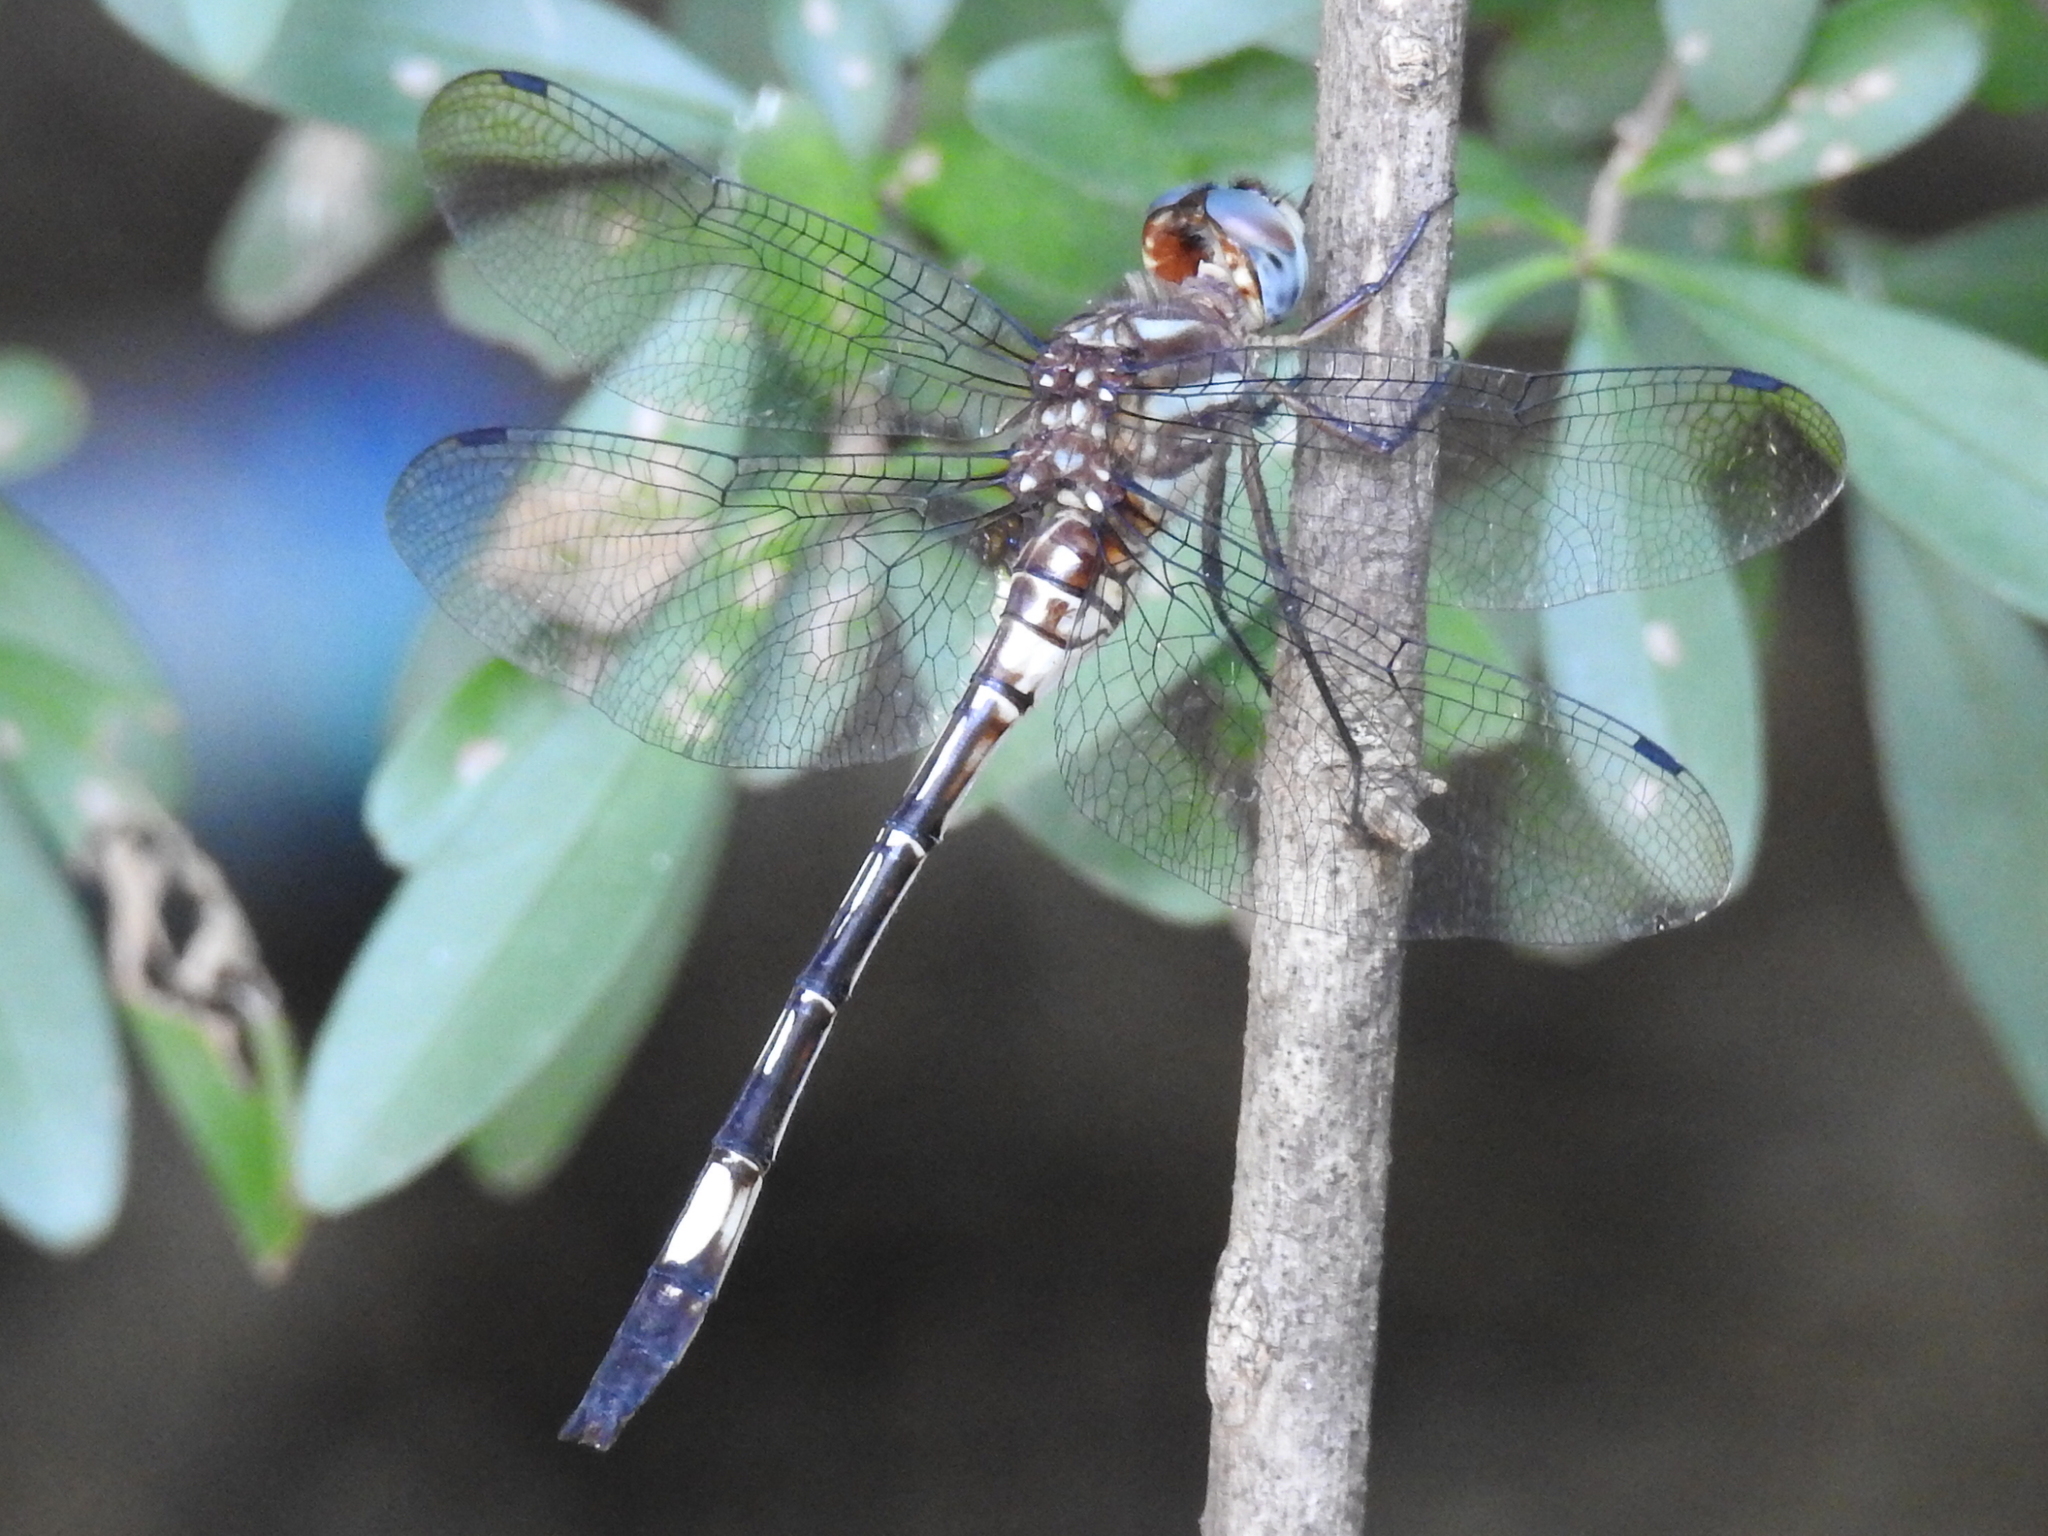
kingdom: Animalia
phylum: Arthropoda
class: Insecta
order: Odonata
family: Libellulidae
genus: Brechmorhoga
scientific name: Brechmorhoga mendax
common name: Pale-faced clubskimmer
